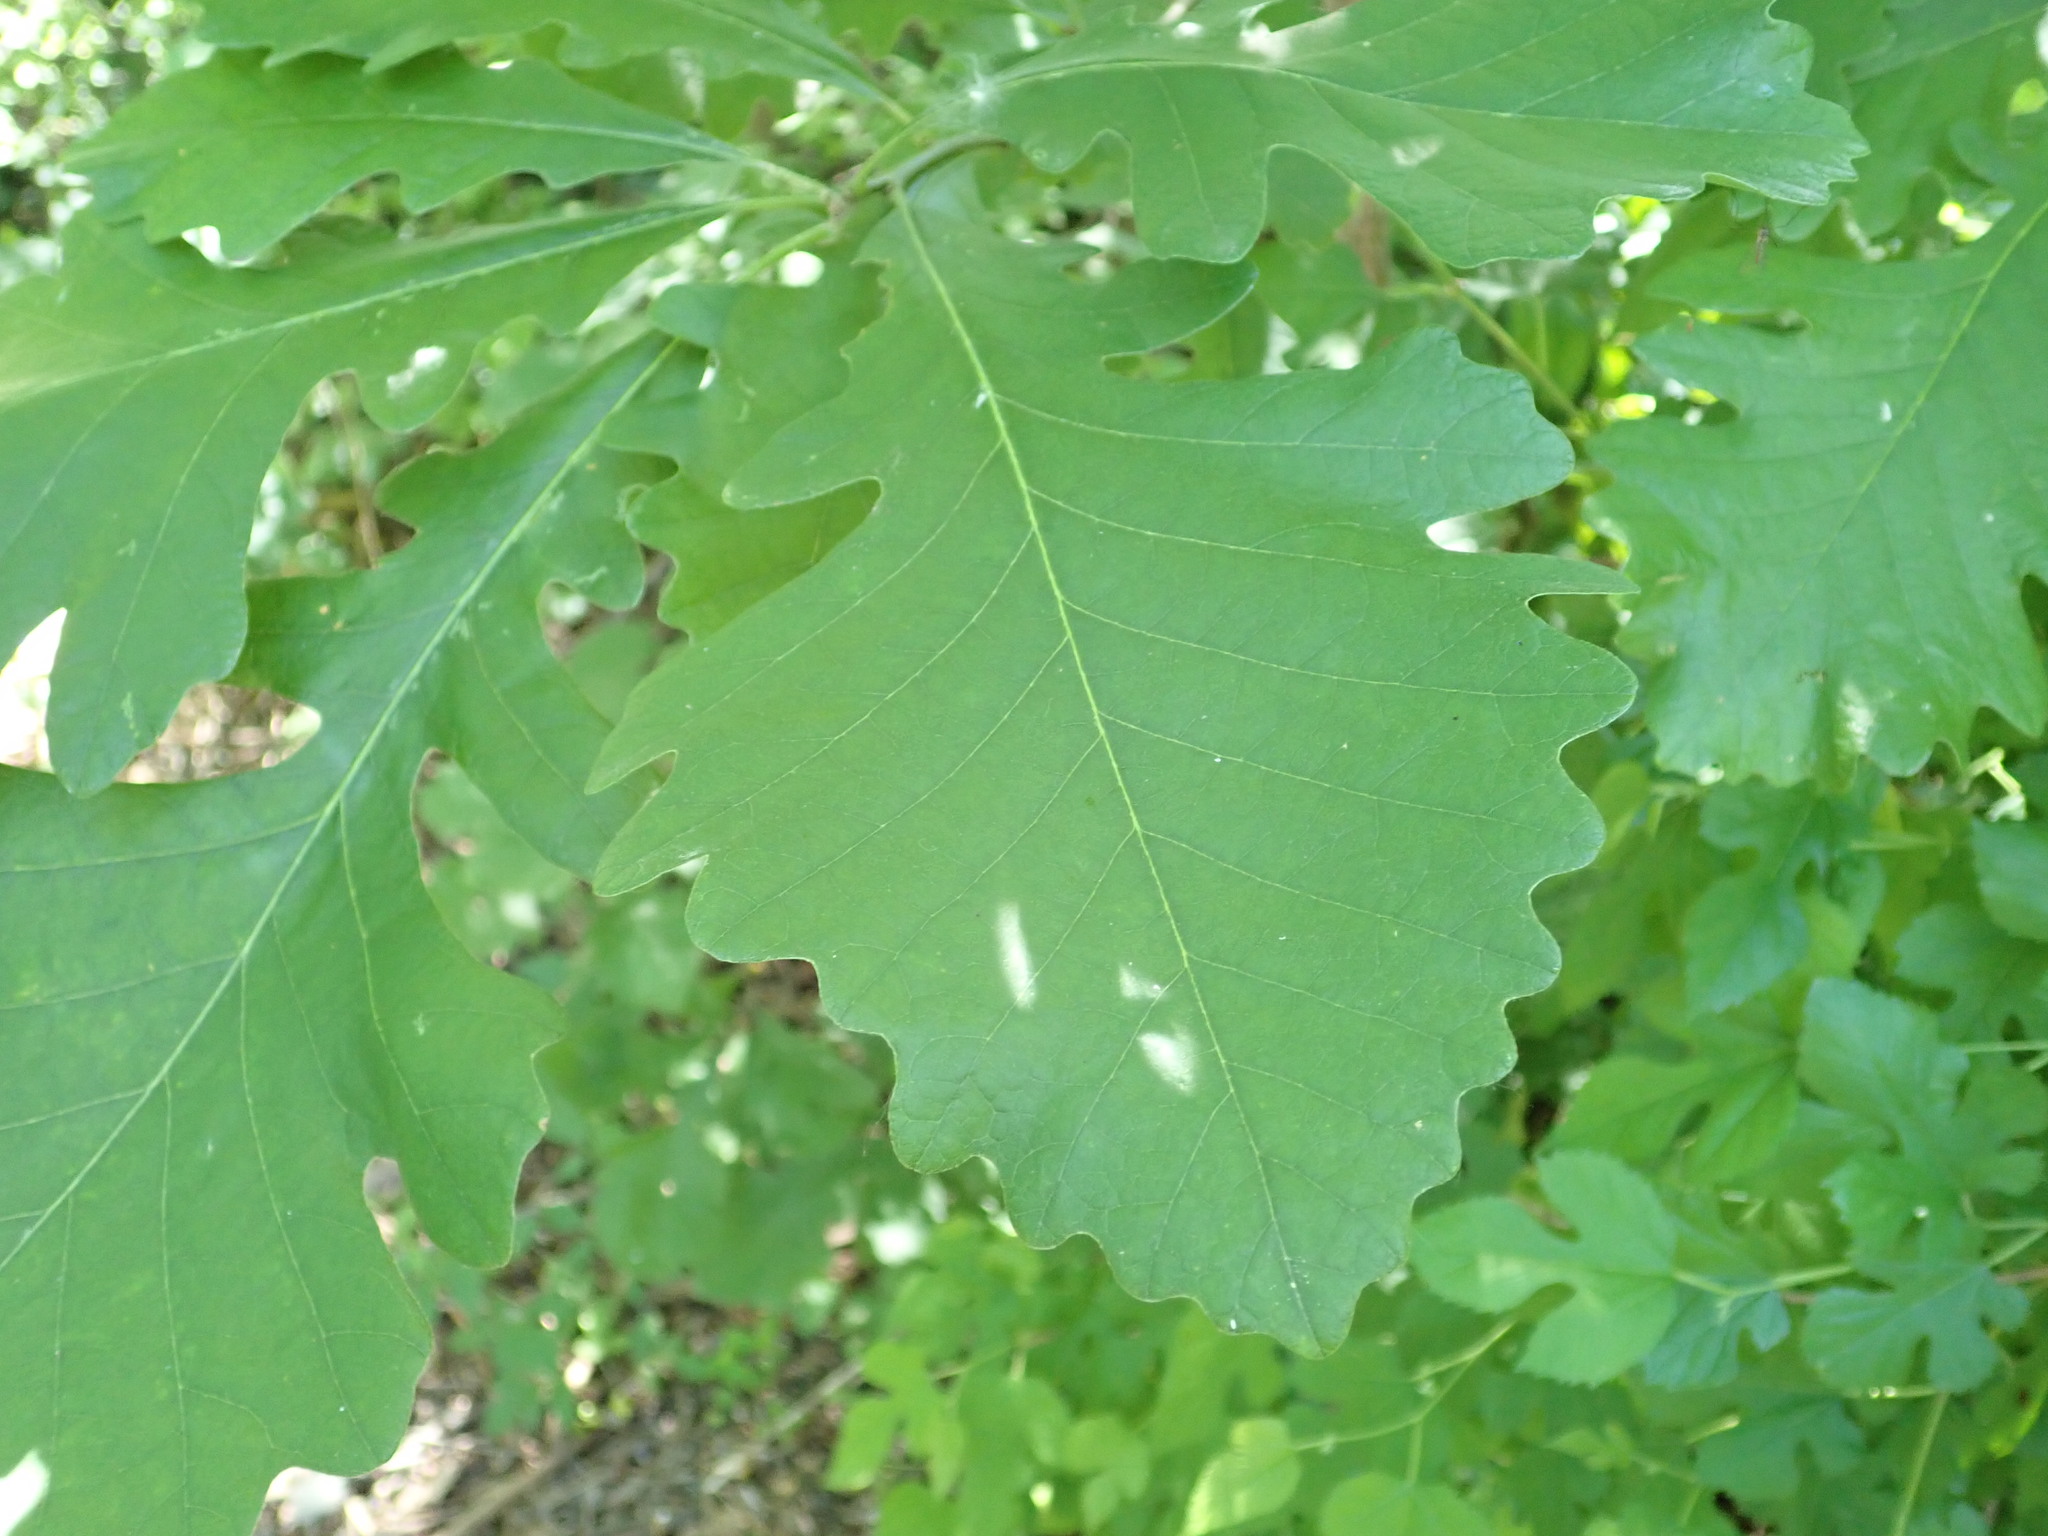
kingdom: Plantae
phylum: Tracheophyta
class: Magnoliopsida
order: Fagales
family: Fagaceae
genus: Quercus
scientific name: Quercus macrocarpa
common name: Bur oak
